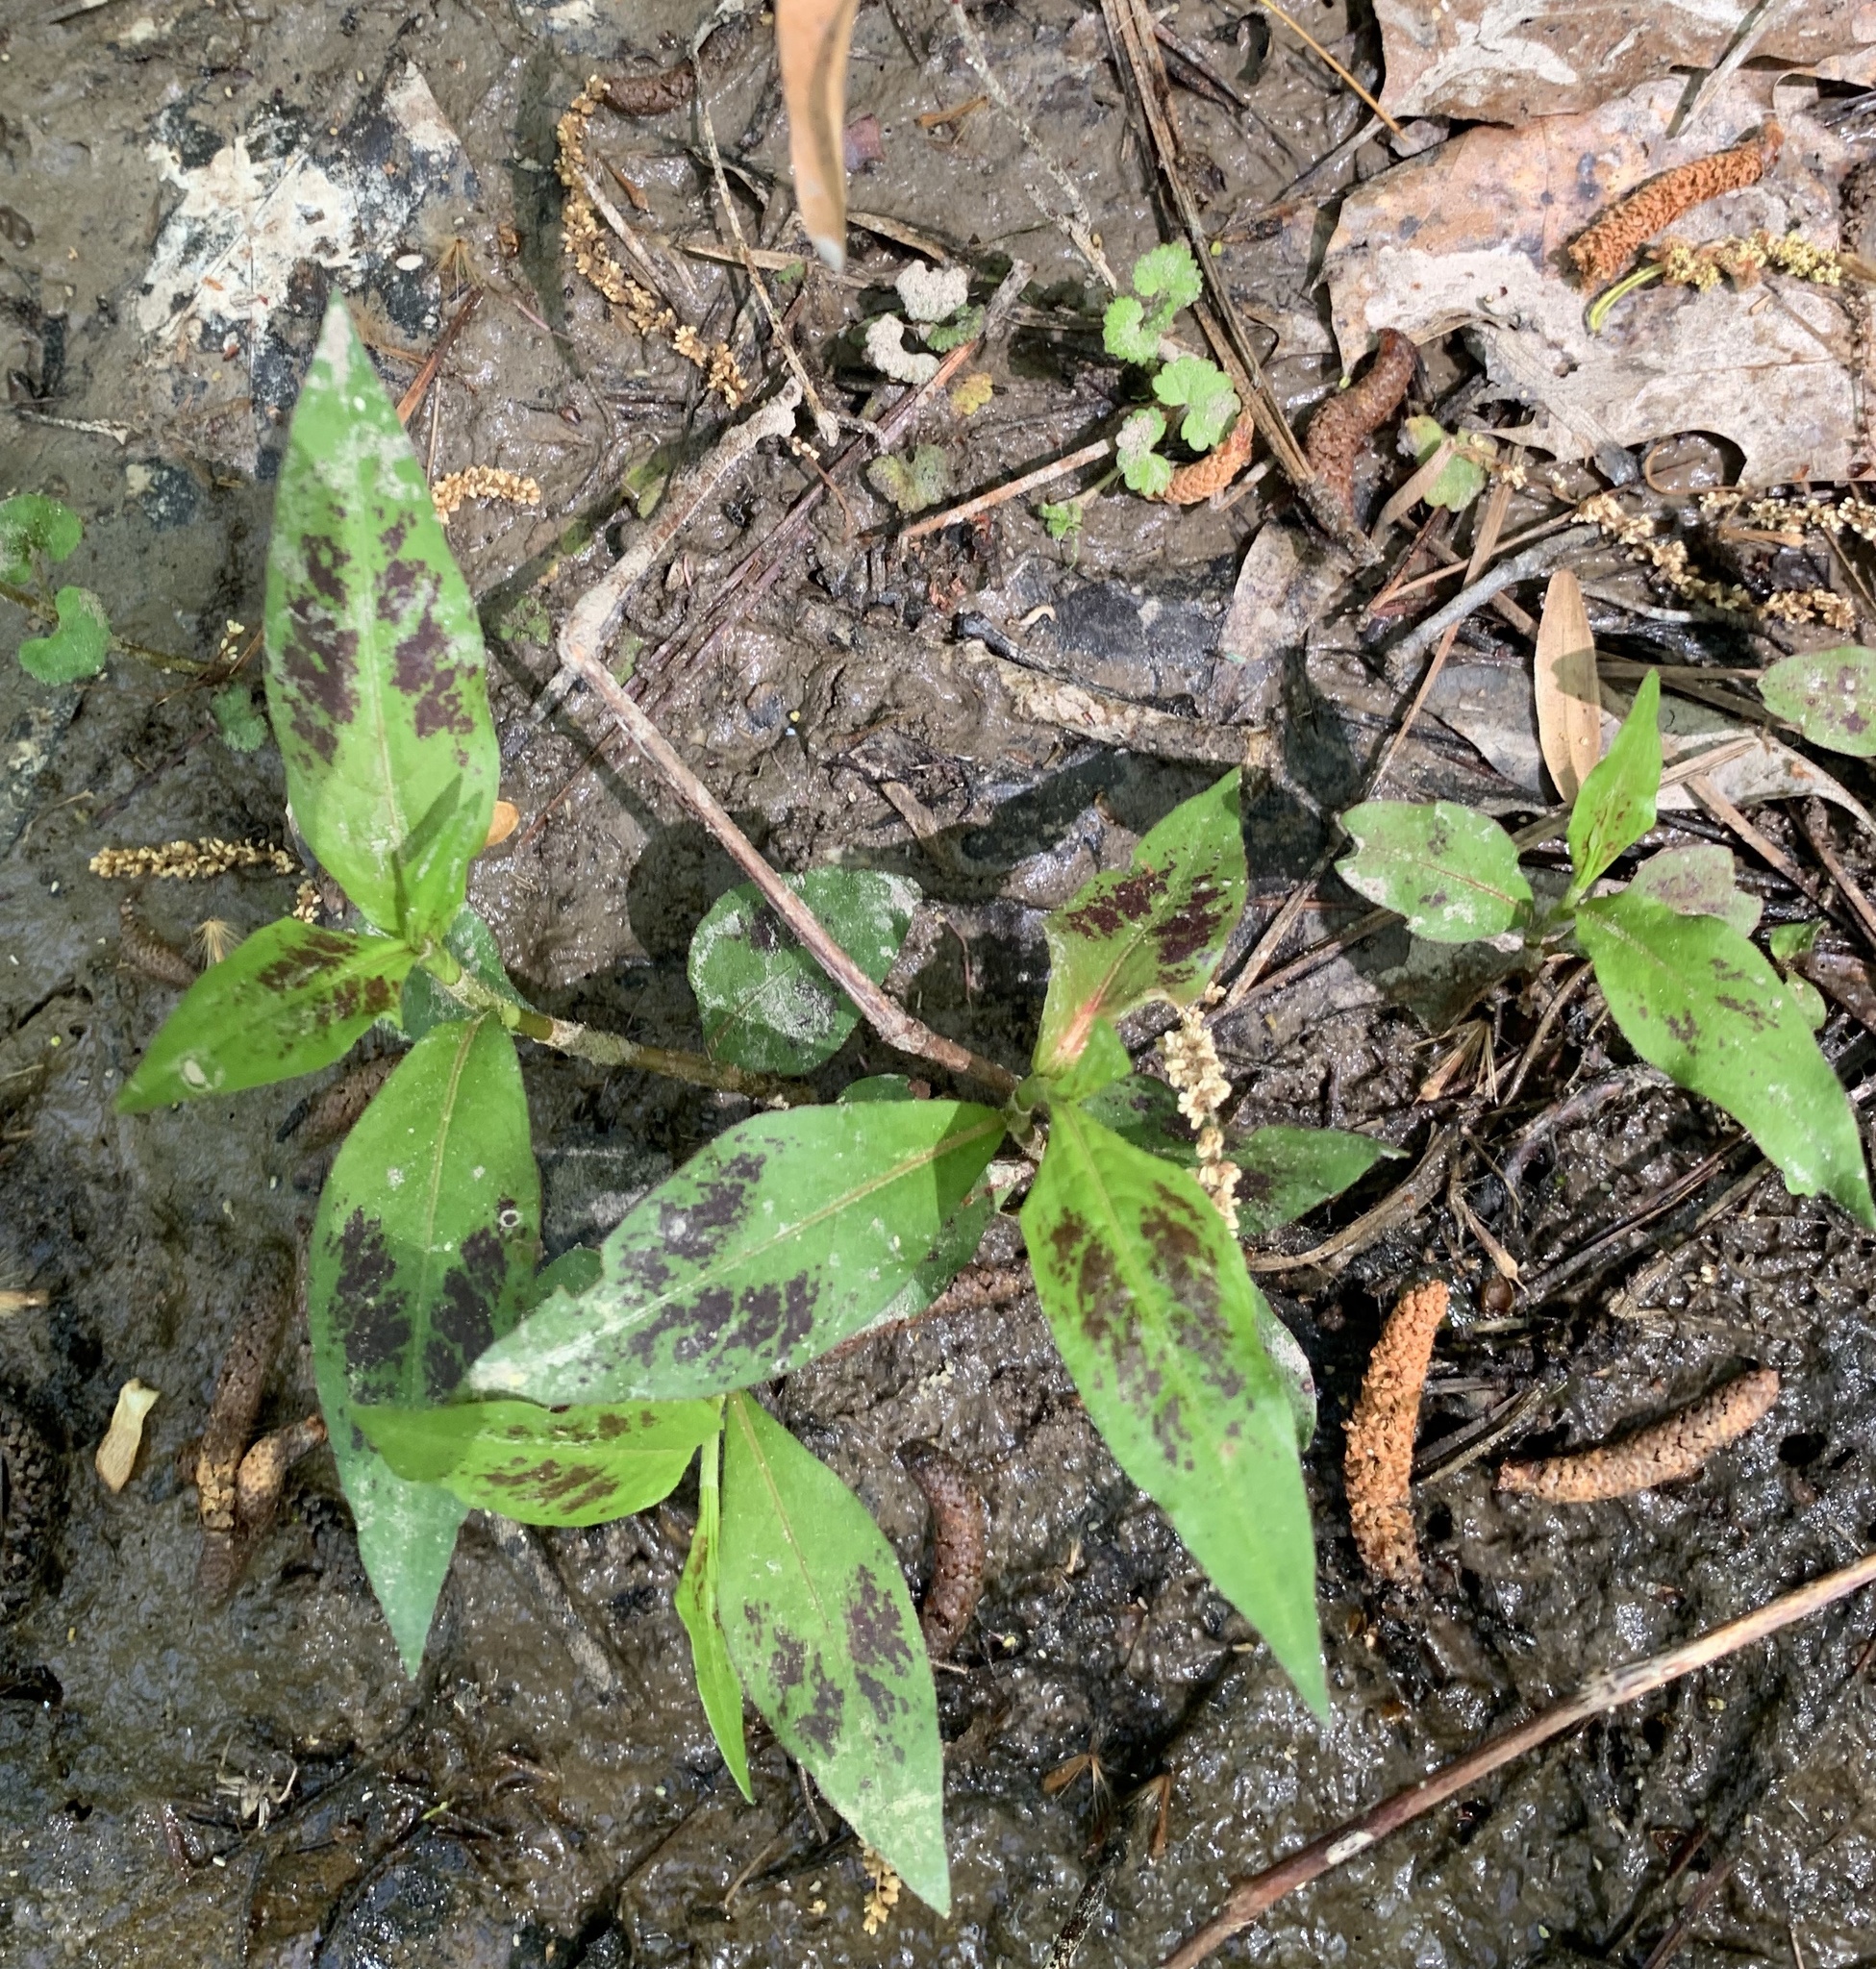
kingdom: Plantae
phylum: Tracheophyta
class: Magnoliopsida
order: Caryophyllales
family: Polygonaceae
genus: Persicaria
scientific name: Persicaria virginiana
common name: Jumpseed
